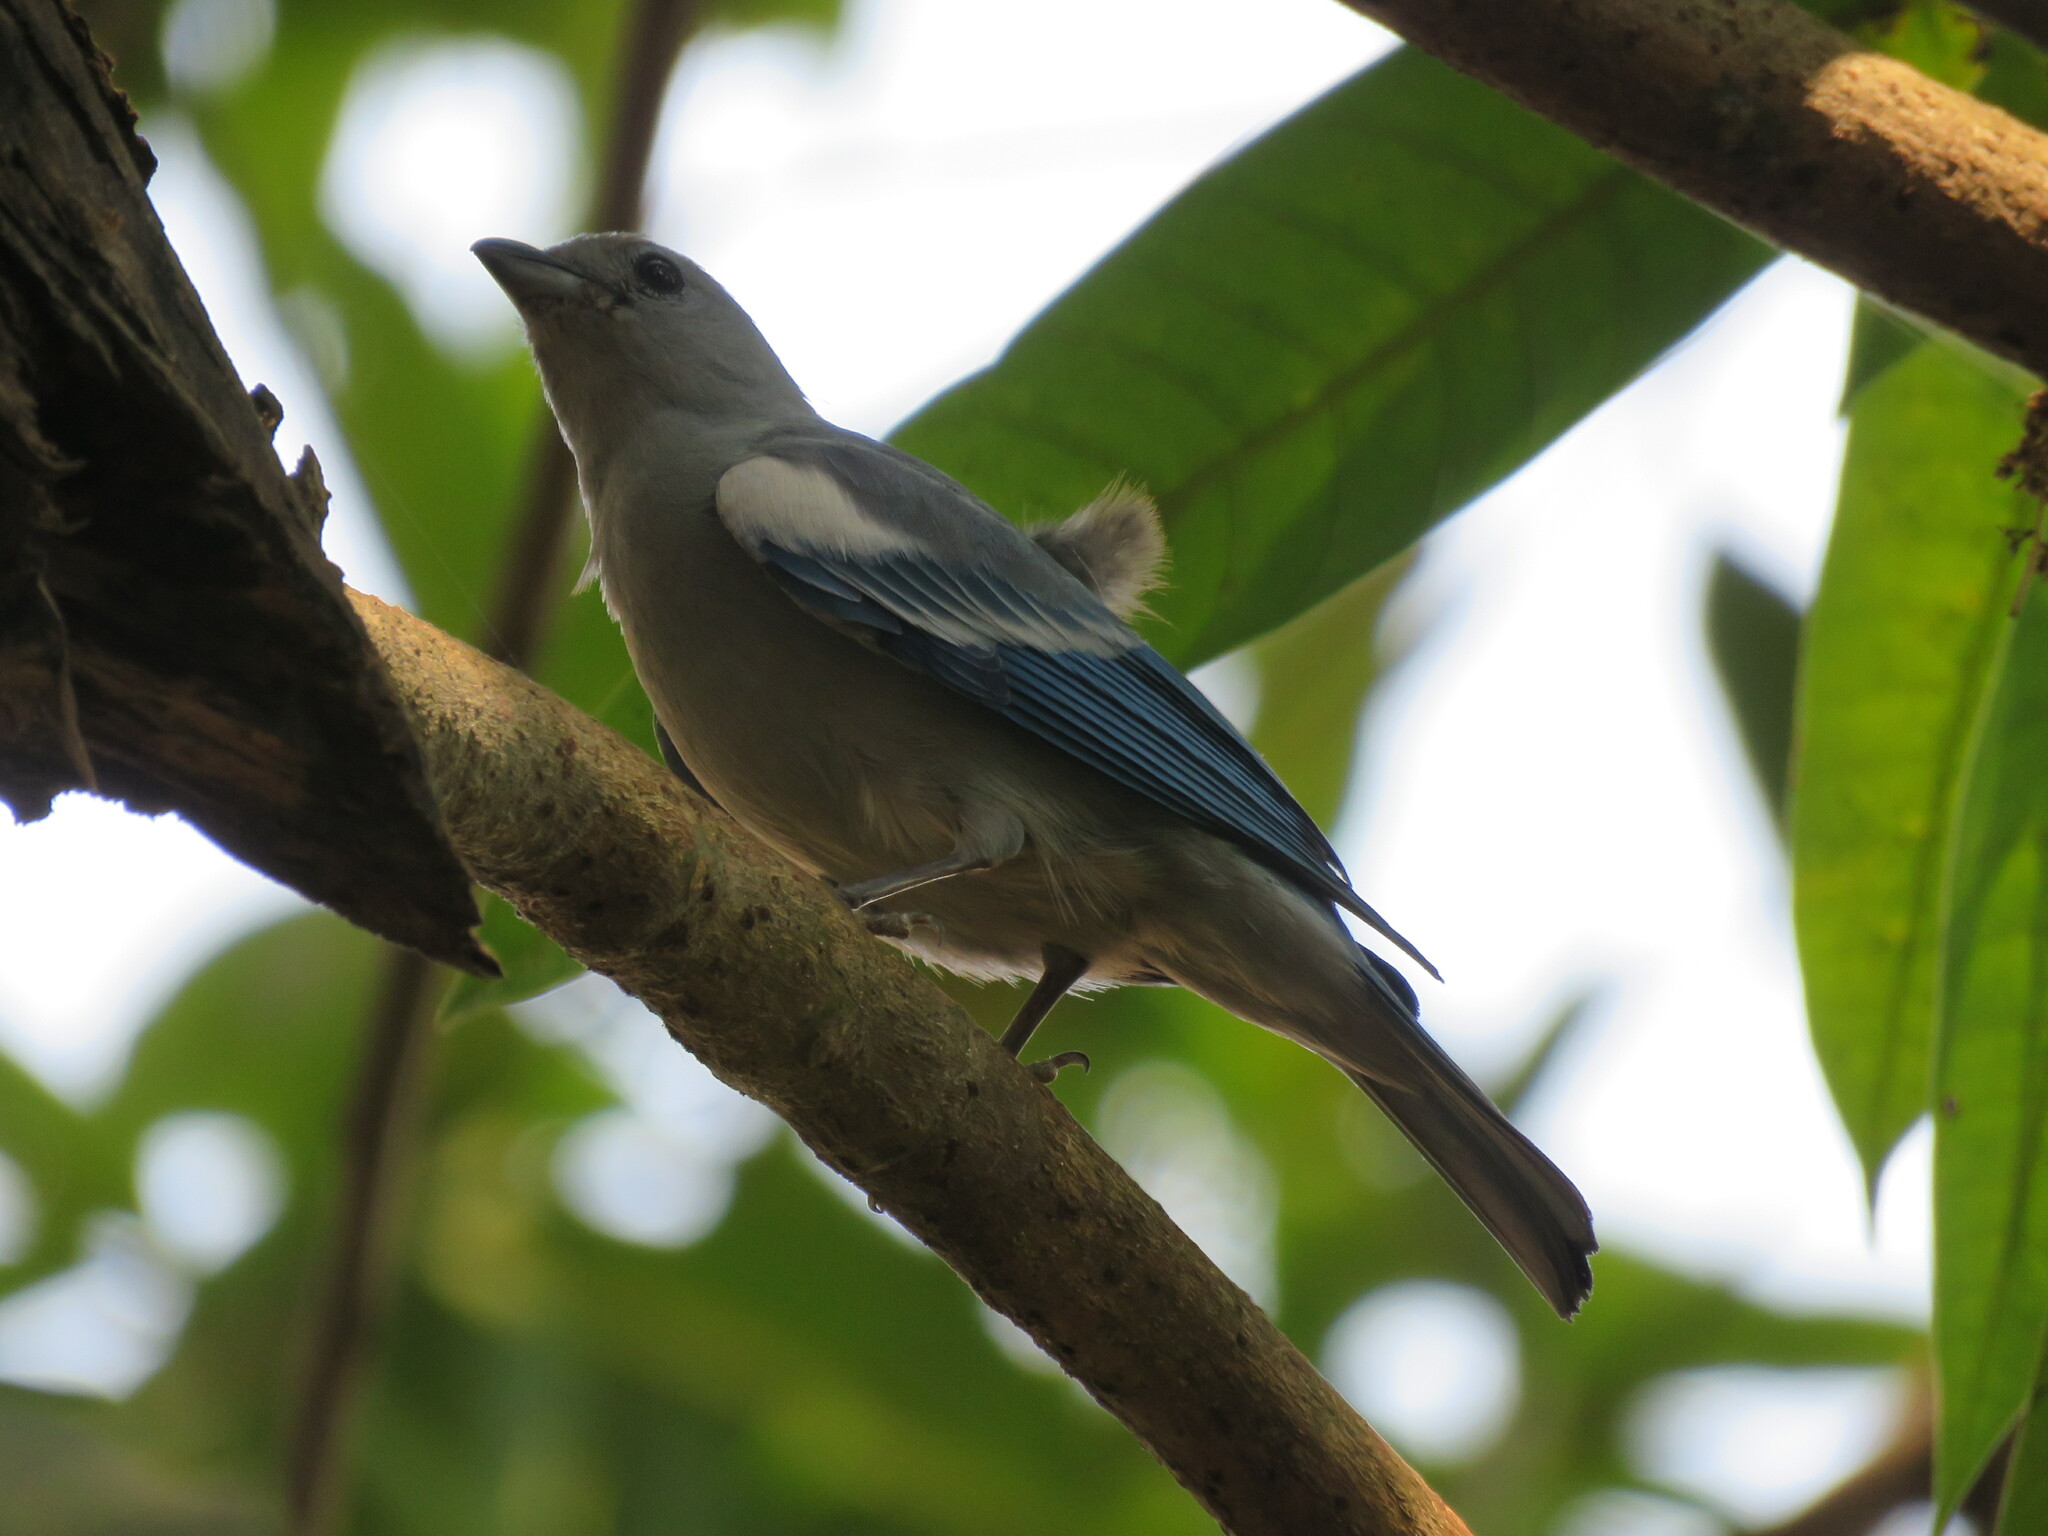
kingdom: Animalia
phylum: Chordata
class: Aves
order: Passeriformes
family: Thraupidae
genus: Thraupis
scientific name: Thraupis episcopus
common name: Blue-grey tanager
